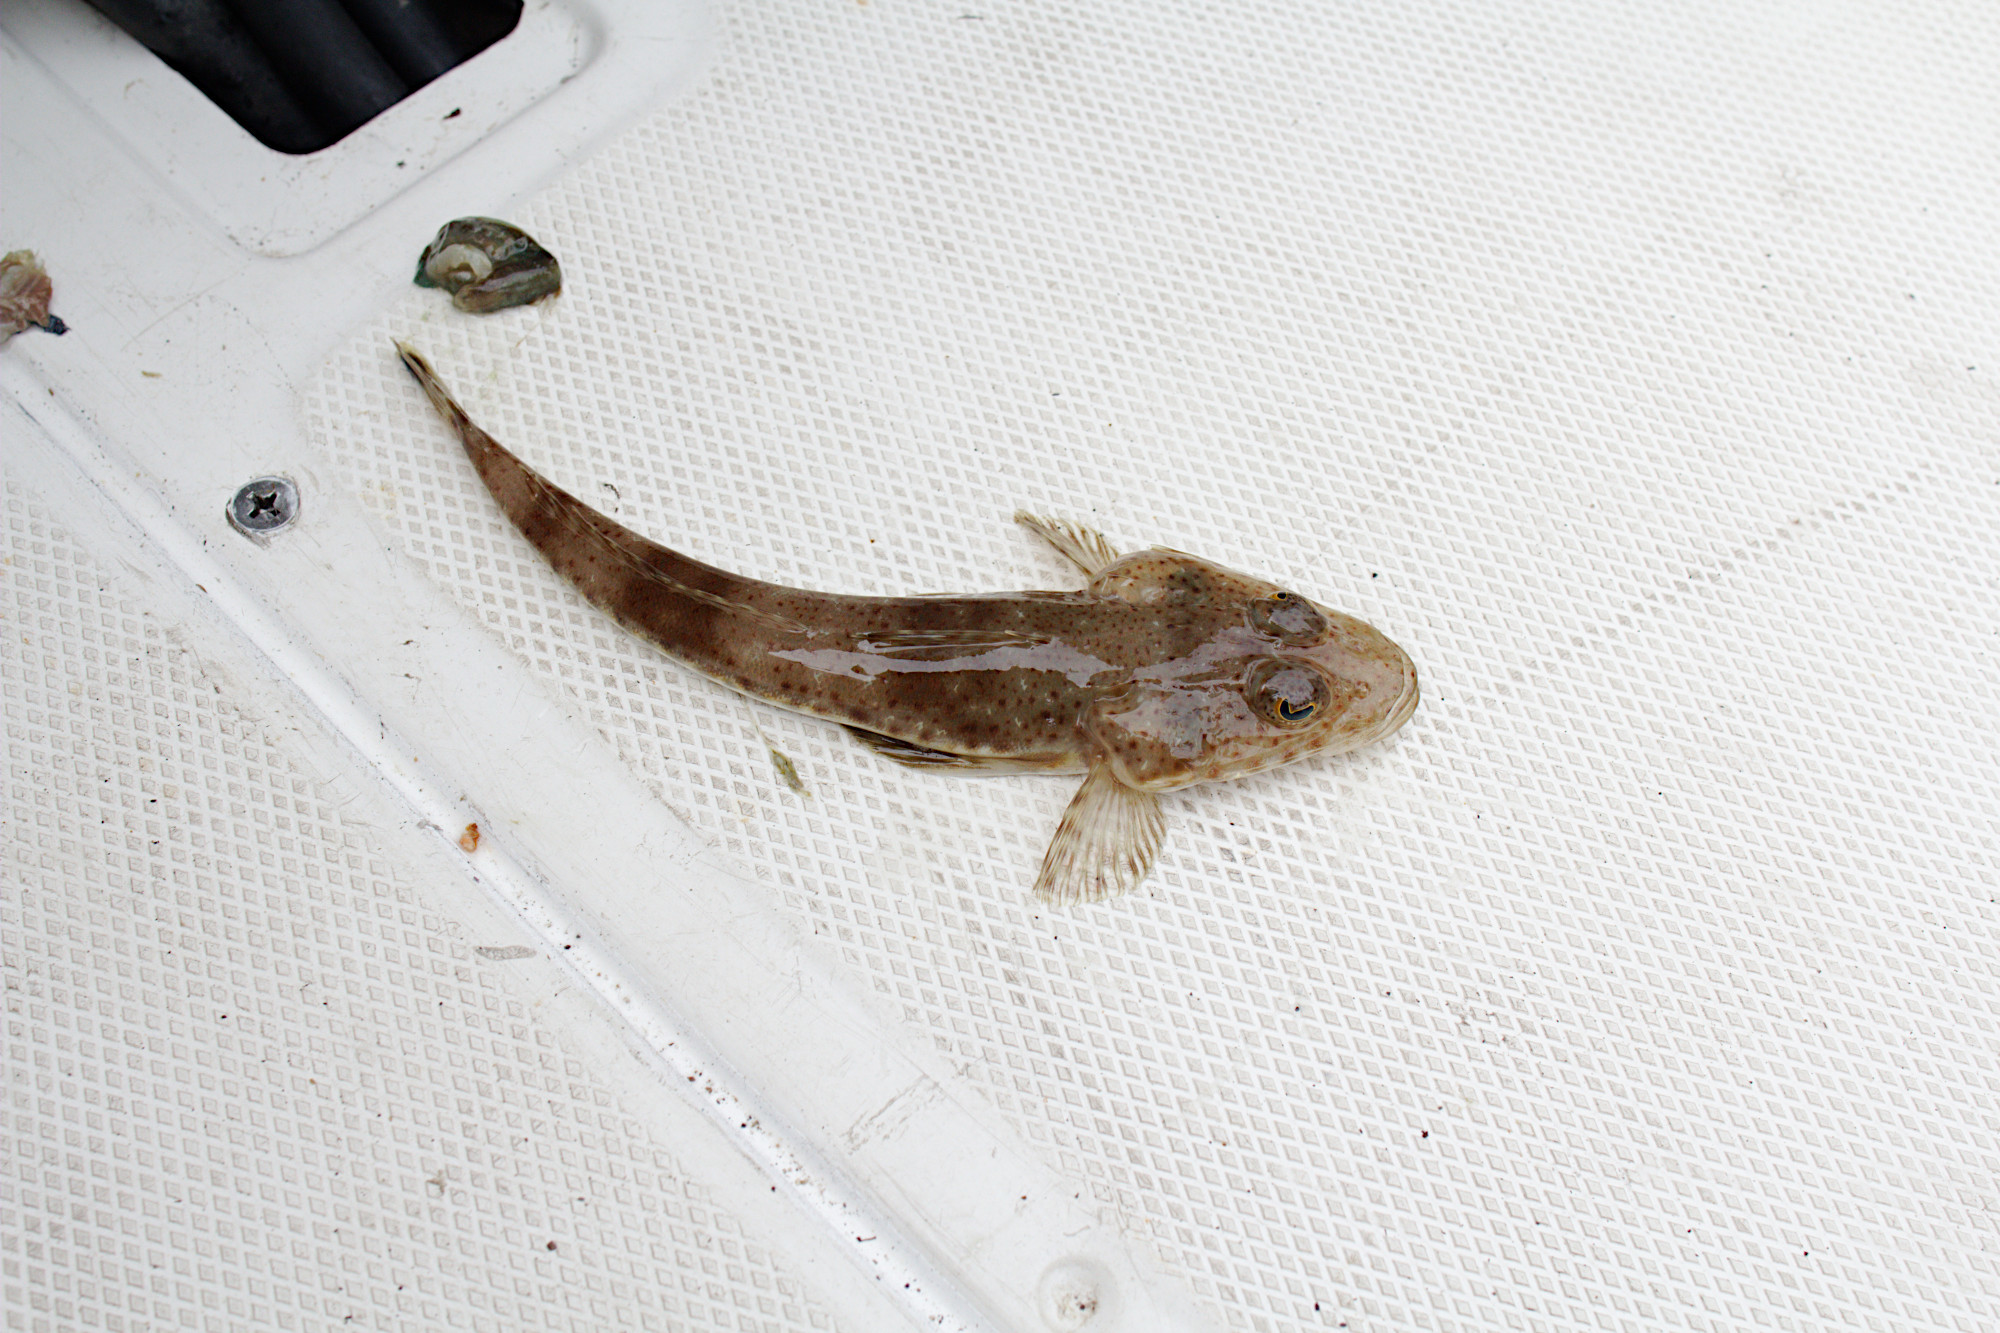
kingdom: Animalia
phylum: Chordata
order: Scorpaeniformes
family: Platycephalidae
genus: Platycephalus
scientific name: Platycephalus speculator
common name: Bluespot flathead
